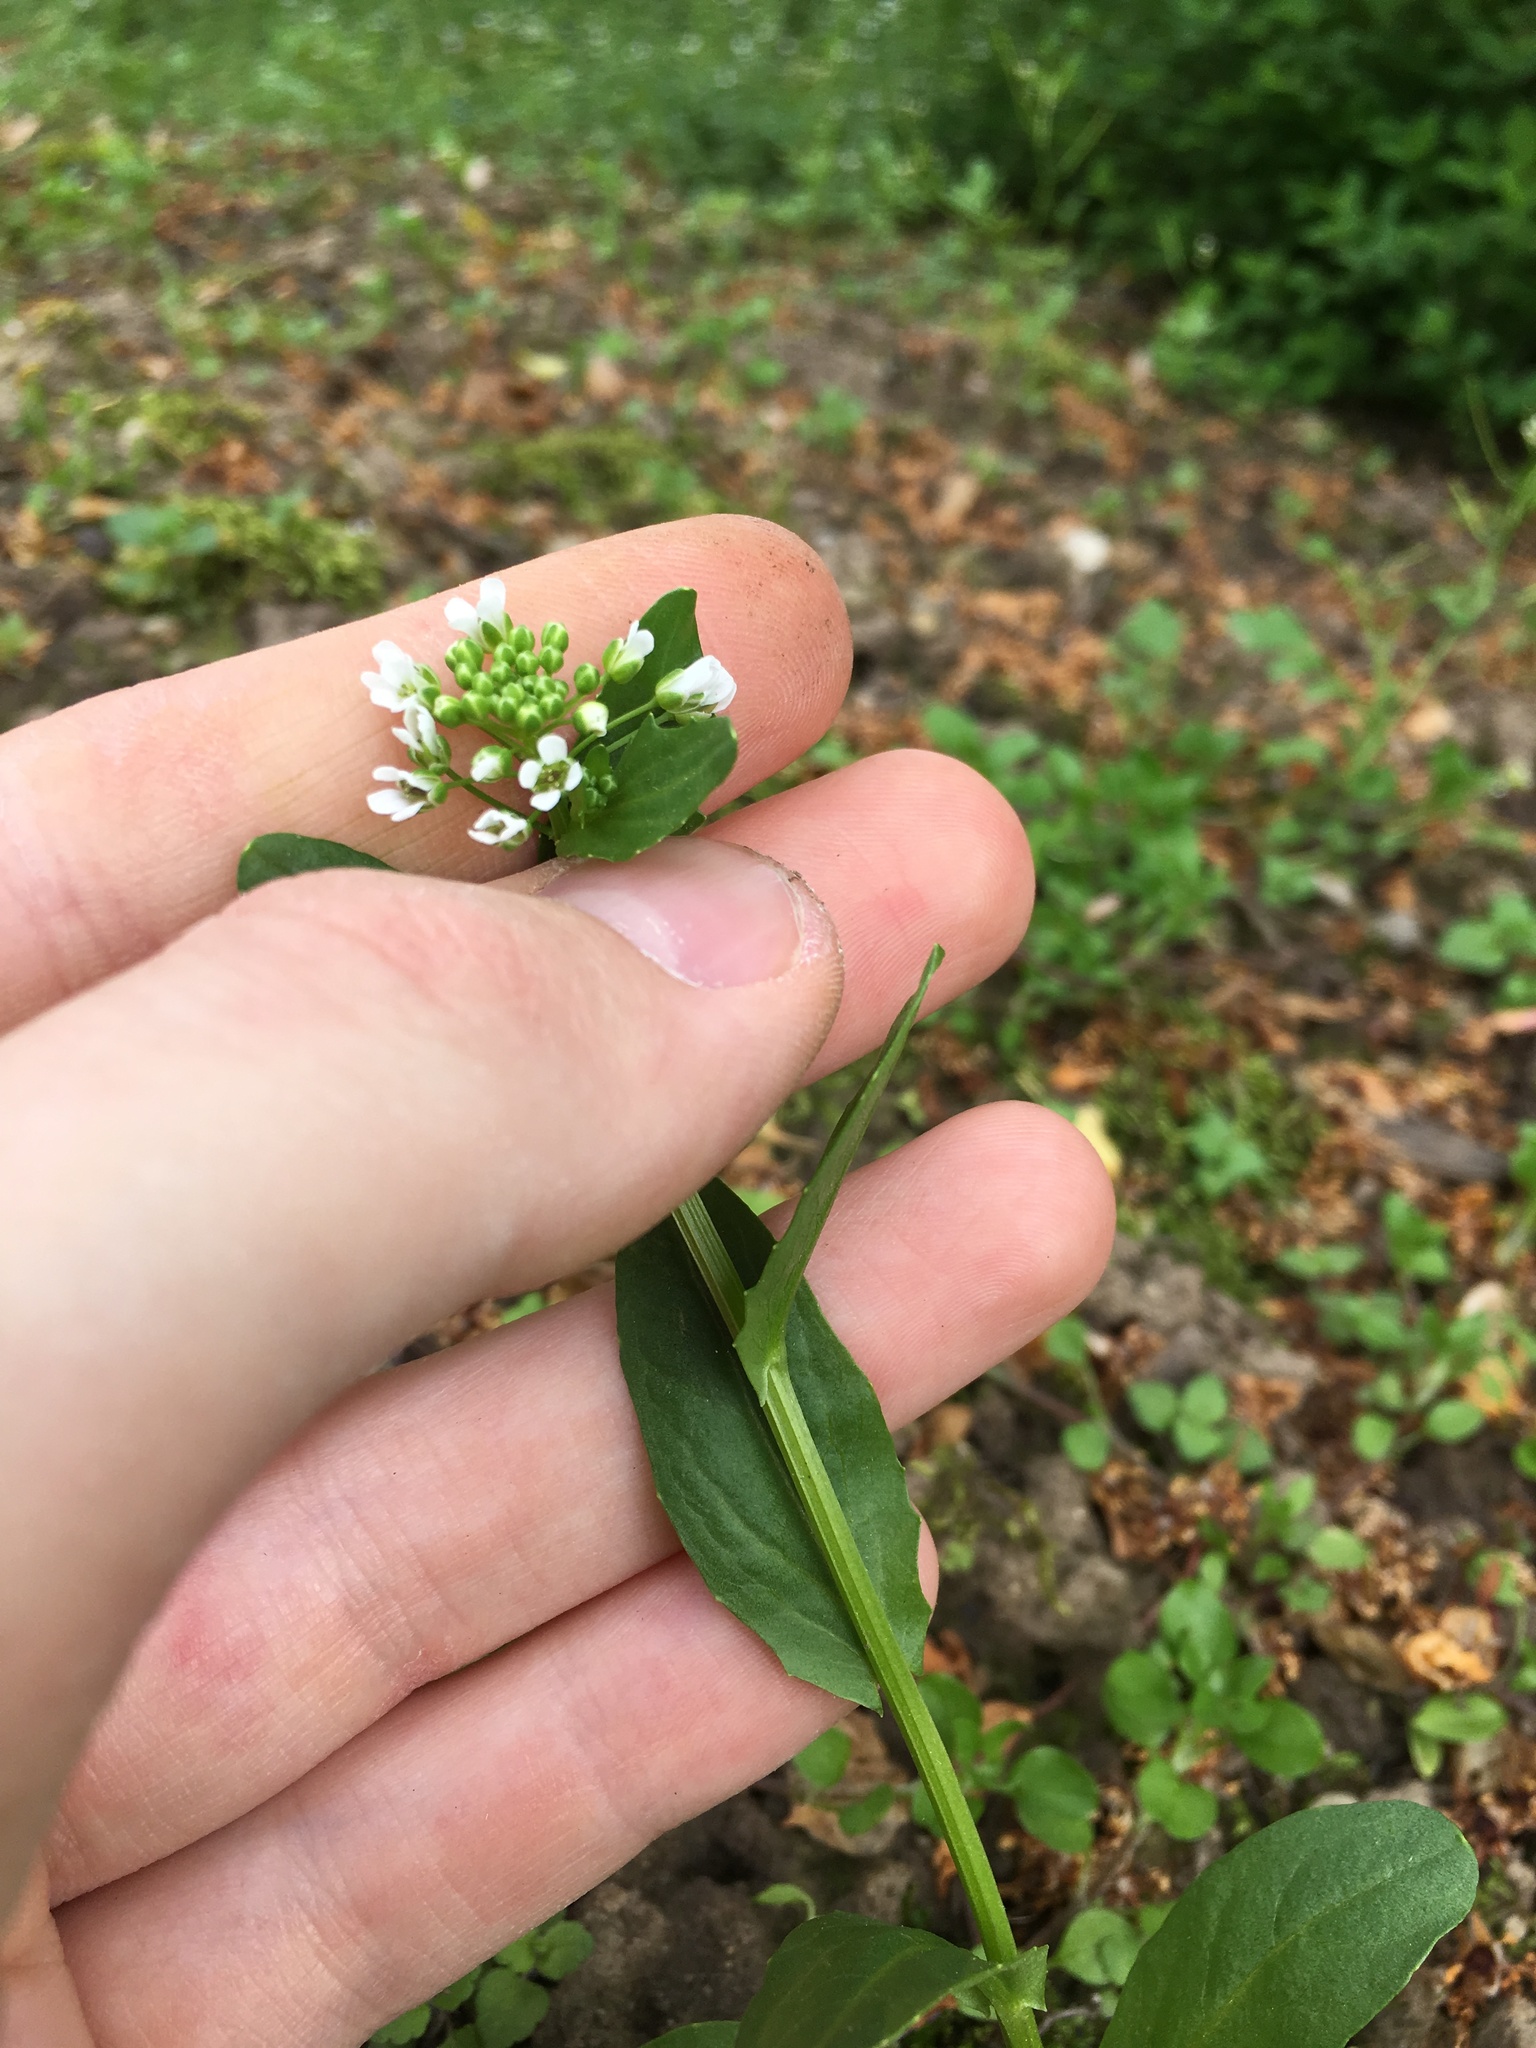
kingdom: Plantae
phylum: Tracheophyta
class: Magnoliopsida
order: Brassicales
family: Brassicaceae
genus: Thlaspi
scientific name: Thlaspi arvense
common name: Field pennycress
